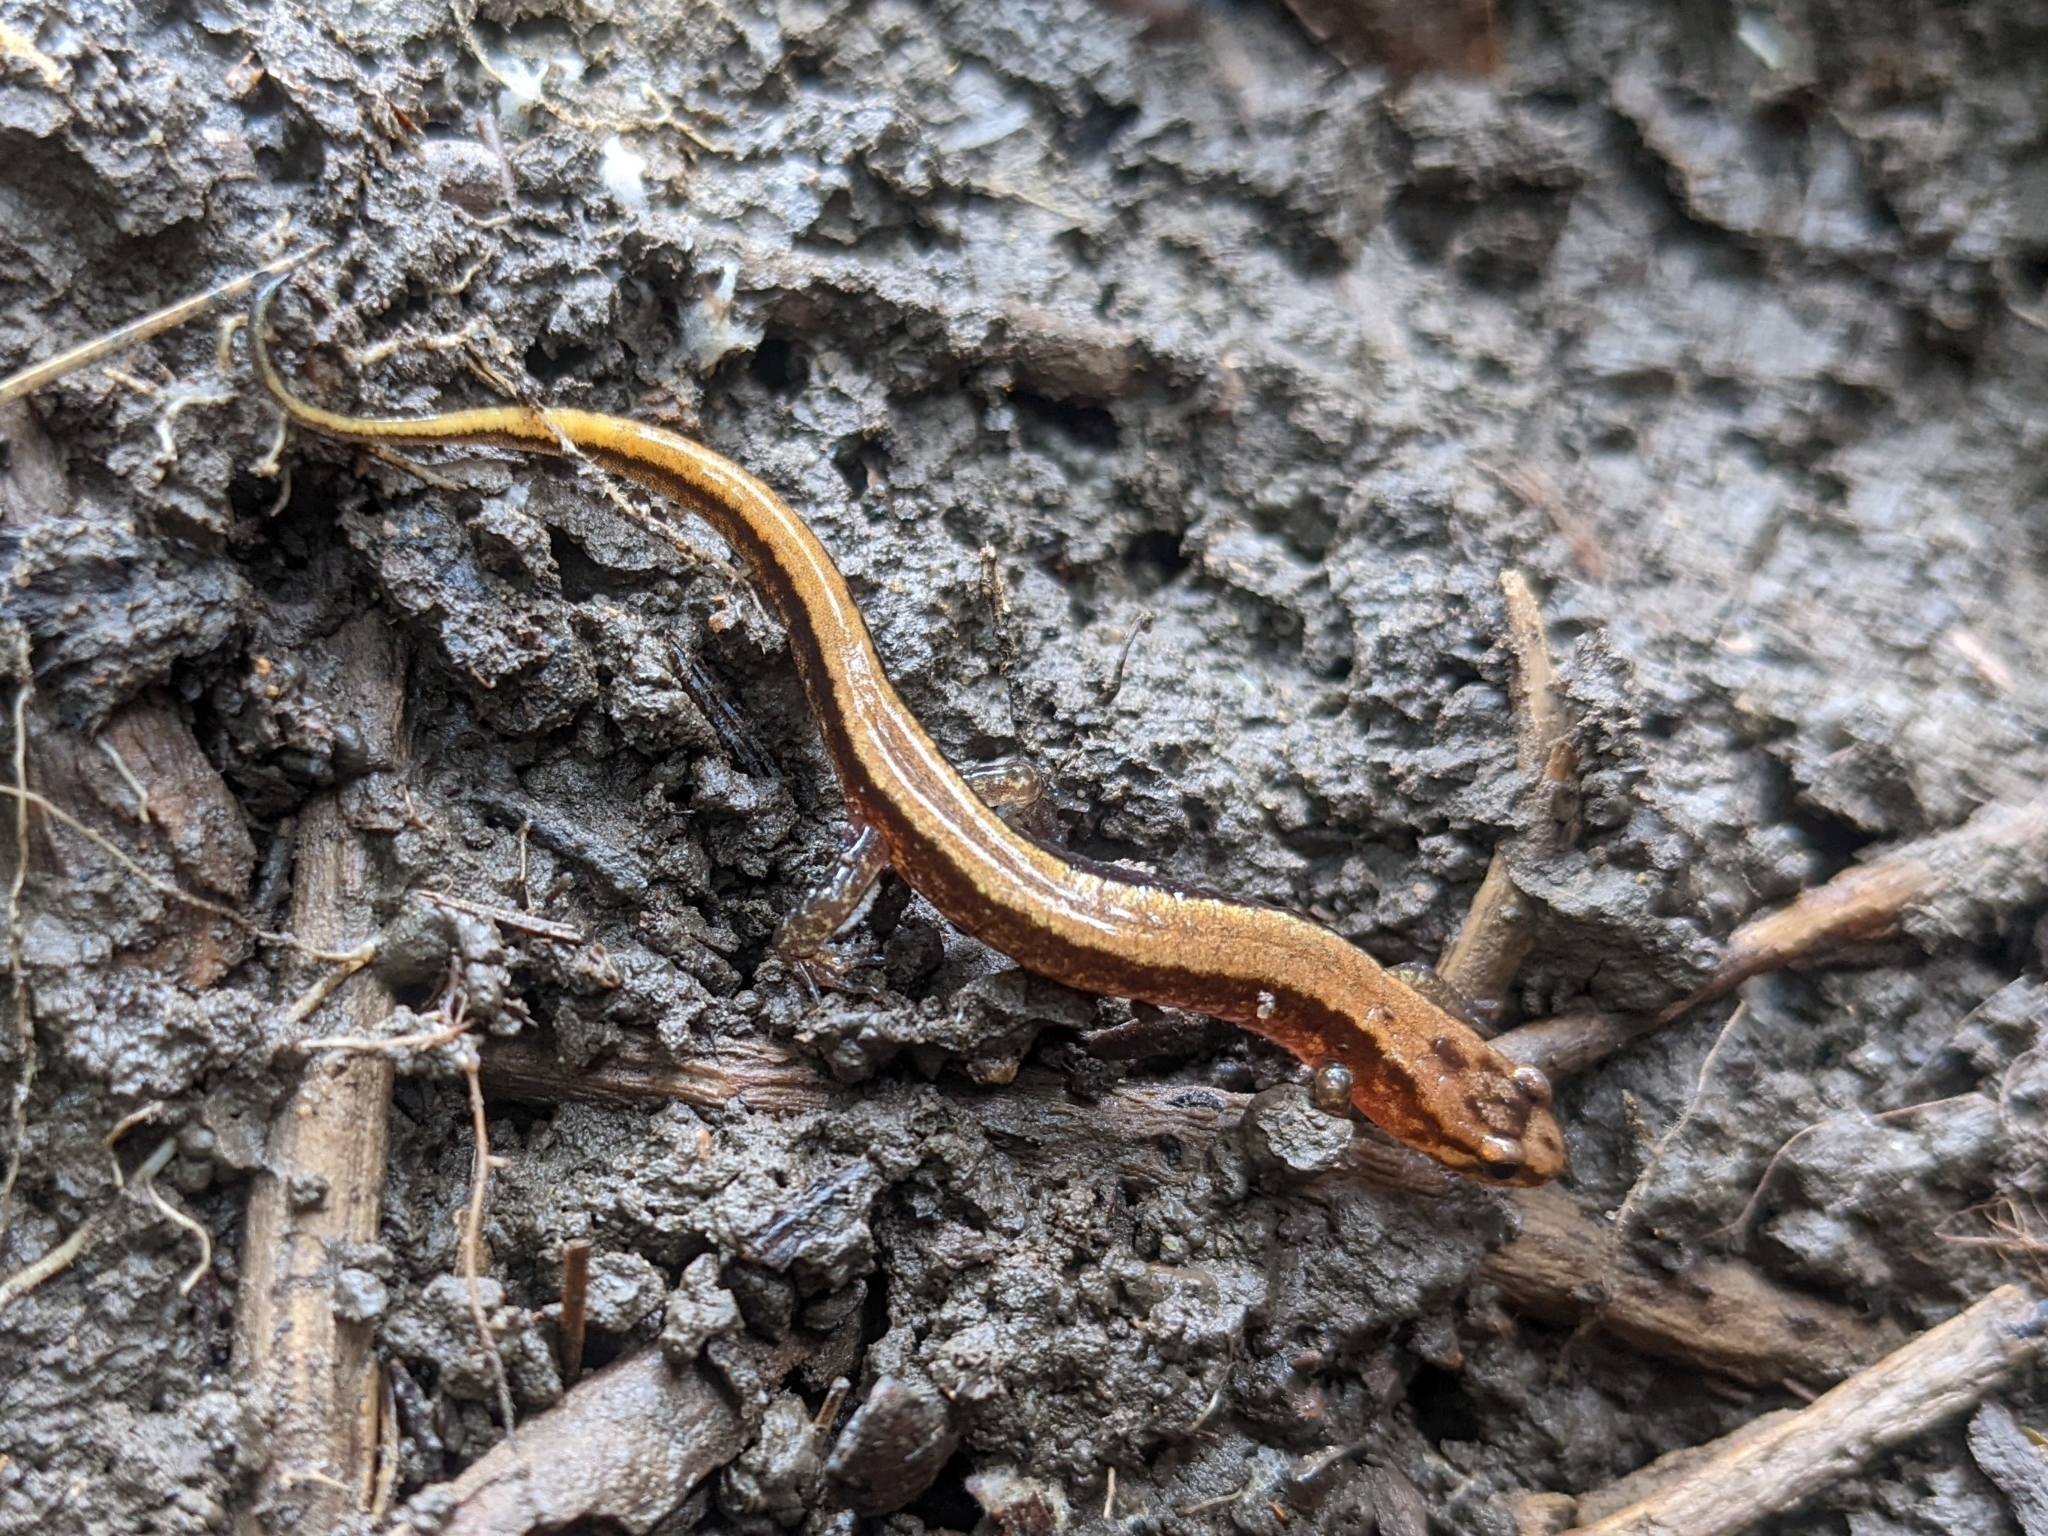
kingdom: Animalia
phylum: Chordata
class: Amphibia
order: Caudata
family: Plethodontidae
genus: Desmognathus
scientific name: Desmognathus ochrophaeus
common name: Allegheny mountain dusky salamander
